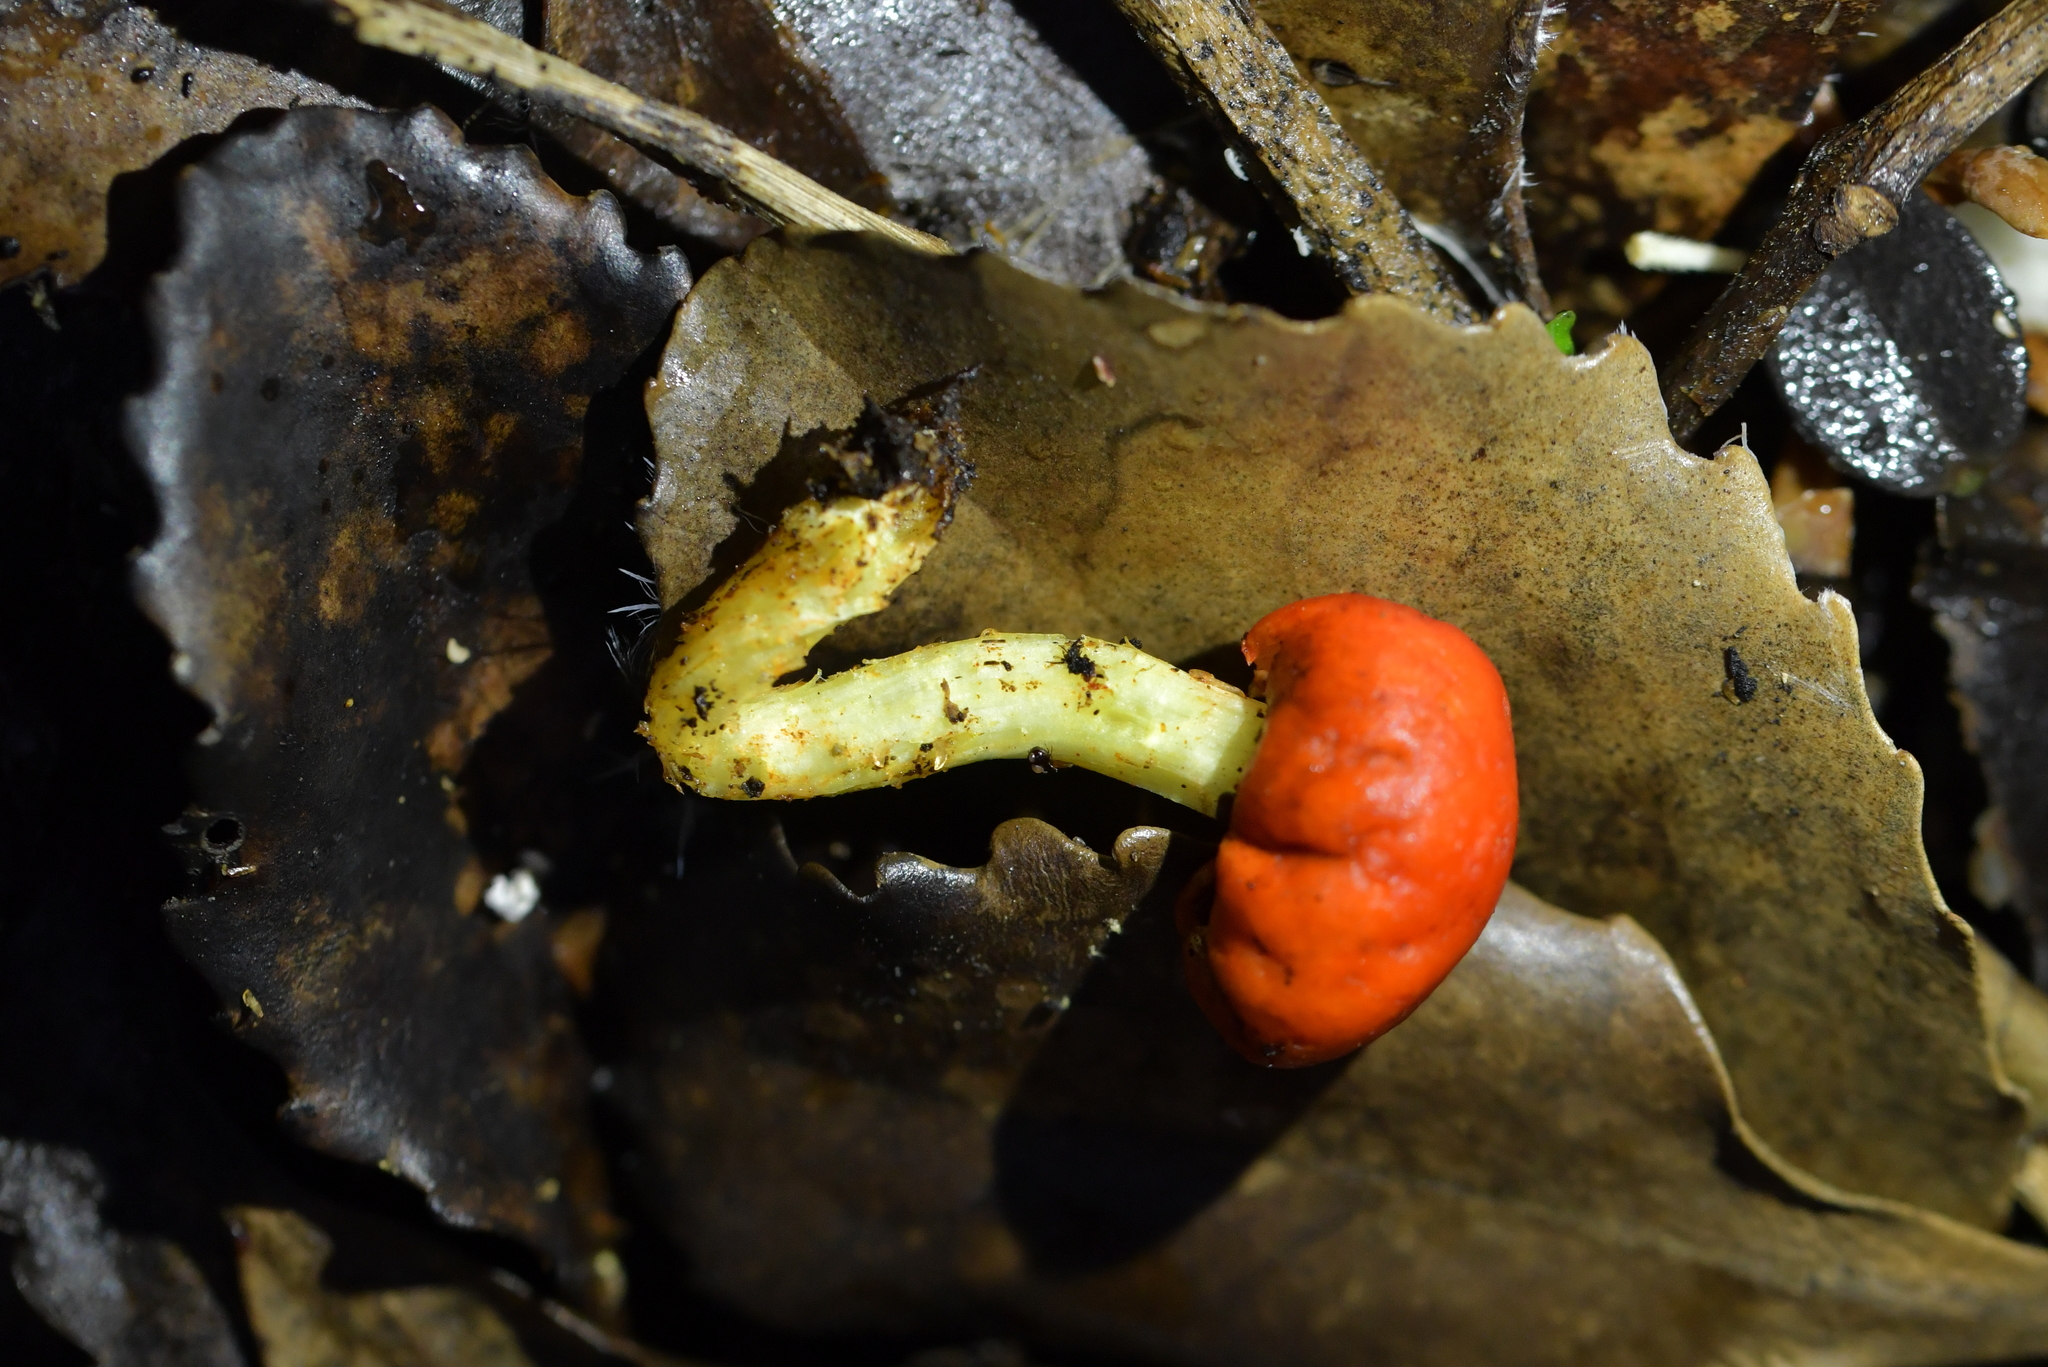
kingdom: Fungi
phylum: Basidiomycota
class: Agaricomycetes
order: Agaricales
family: Strophariaceae
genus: Leratiomyces
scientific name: Leratiomyces erythrocephalus
